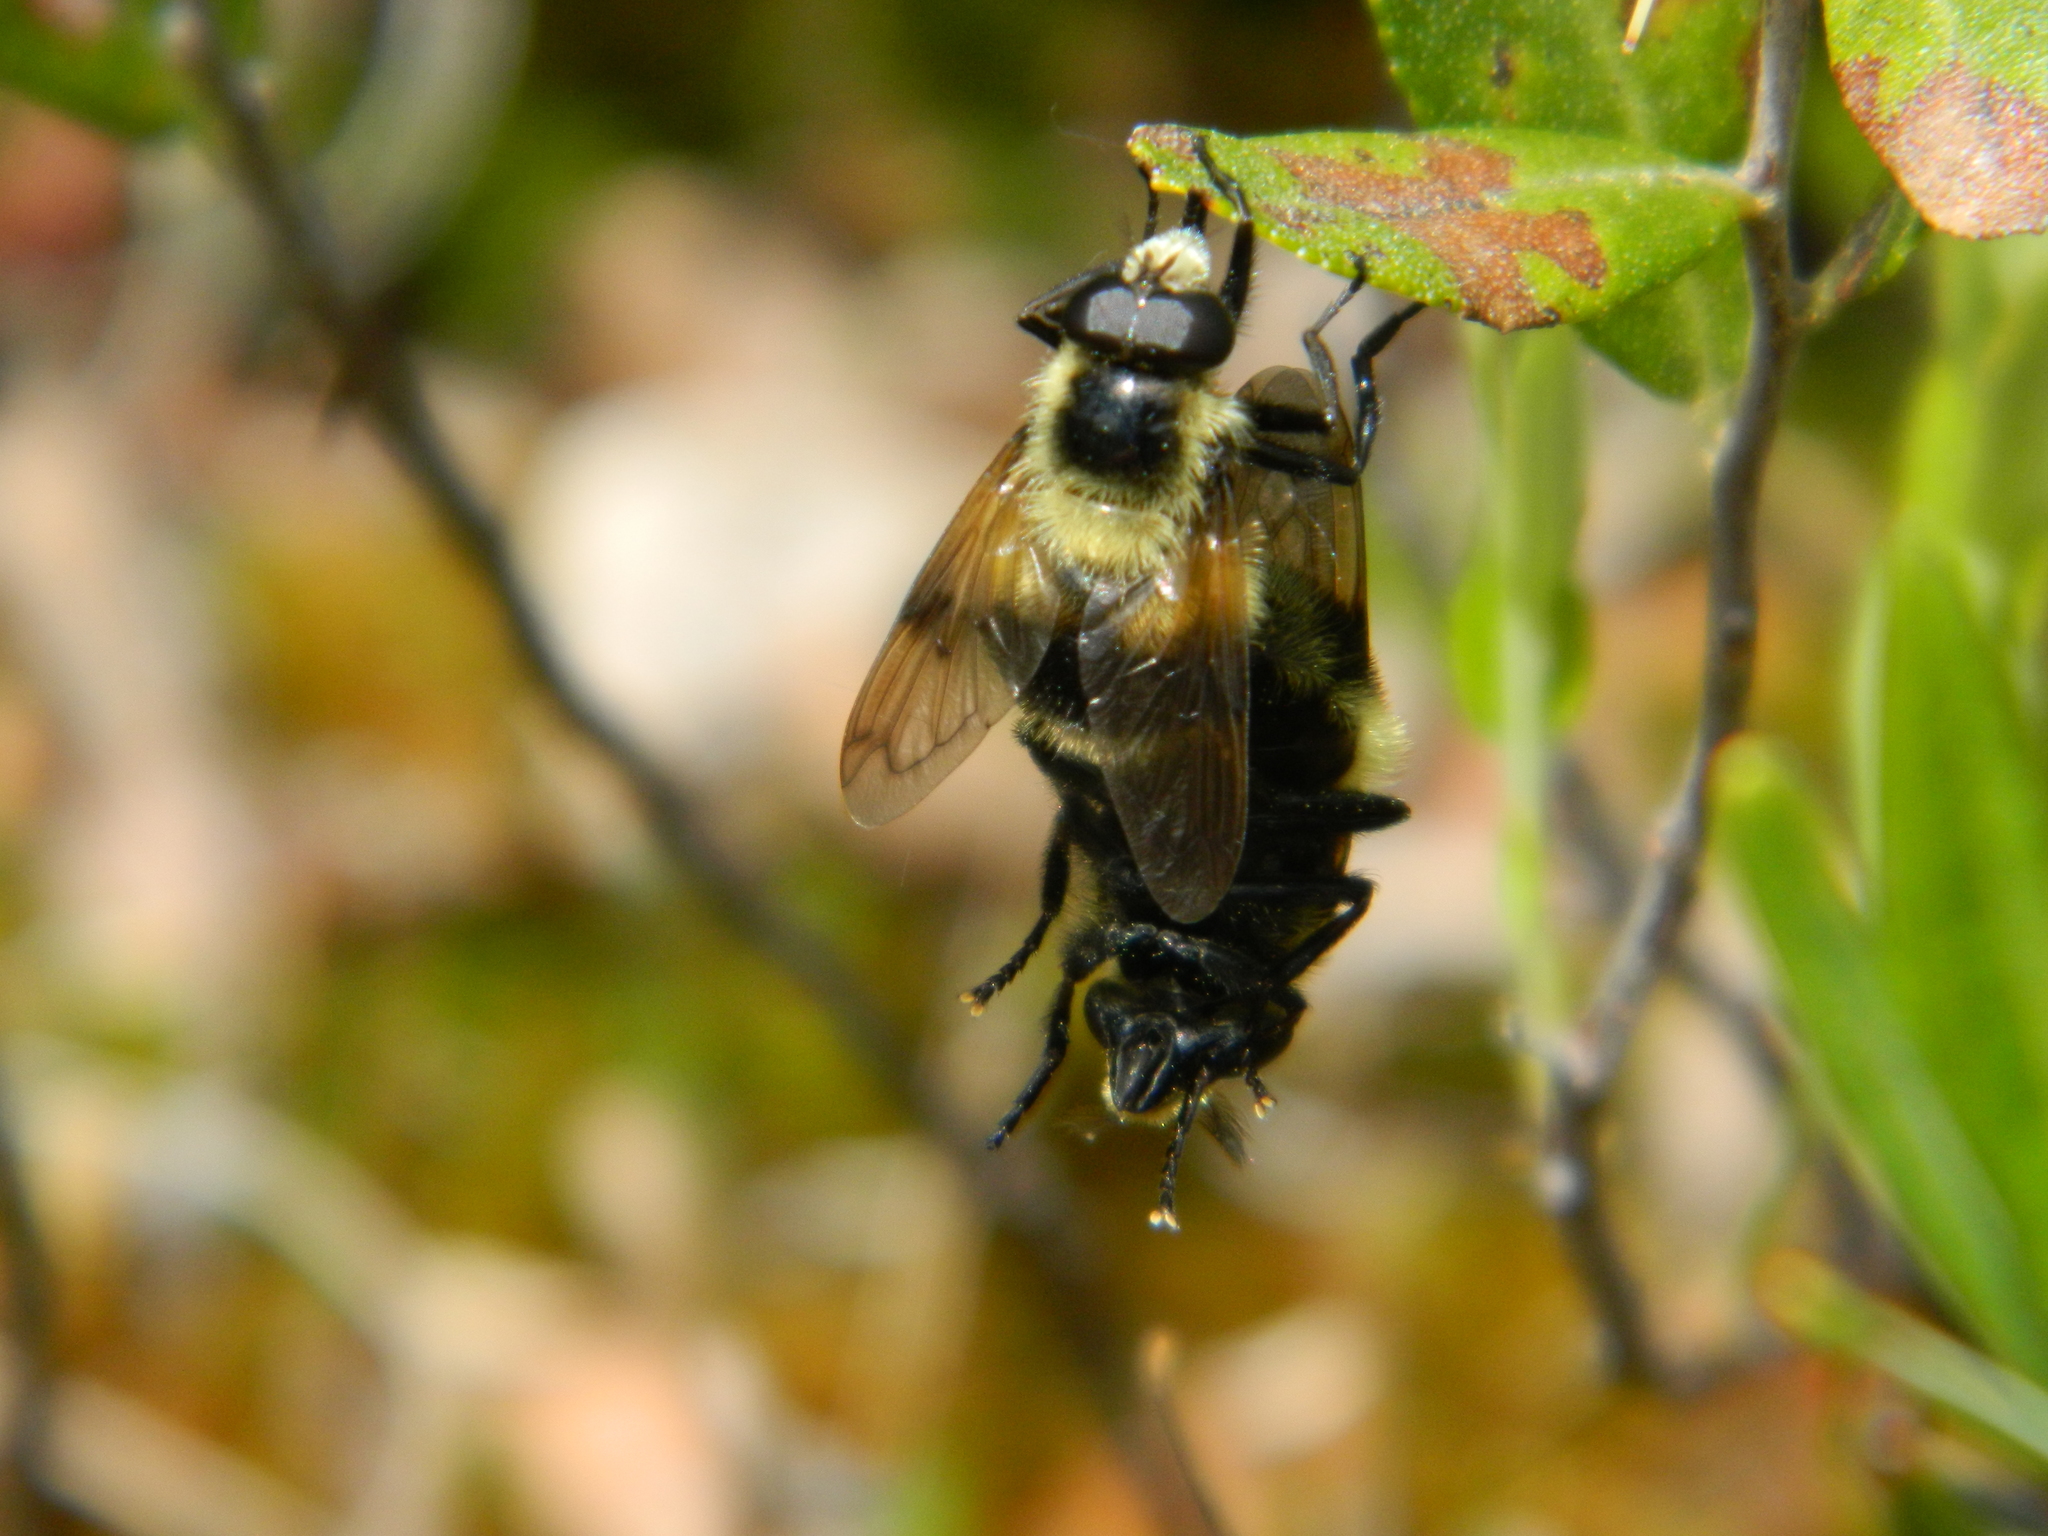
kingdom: Animalia
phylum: Arthropoda
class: Insecta
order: Diptera
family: Syrphidae
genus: Volucella
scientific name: Volucella facialis
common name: Yellow-faced swiftwing
